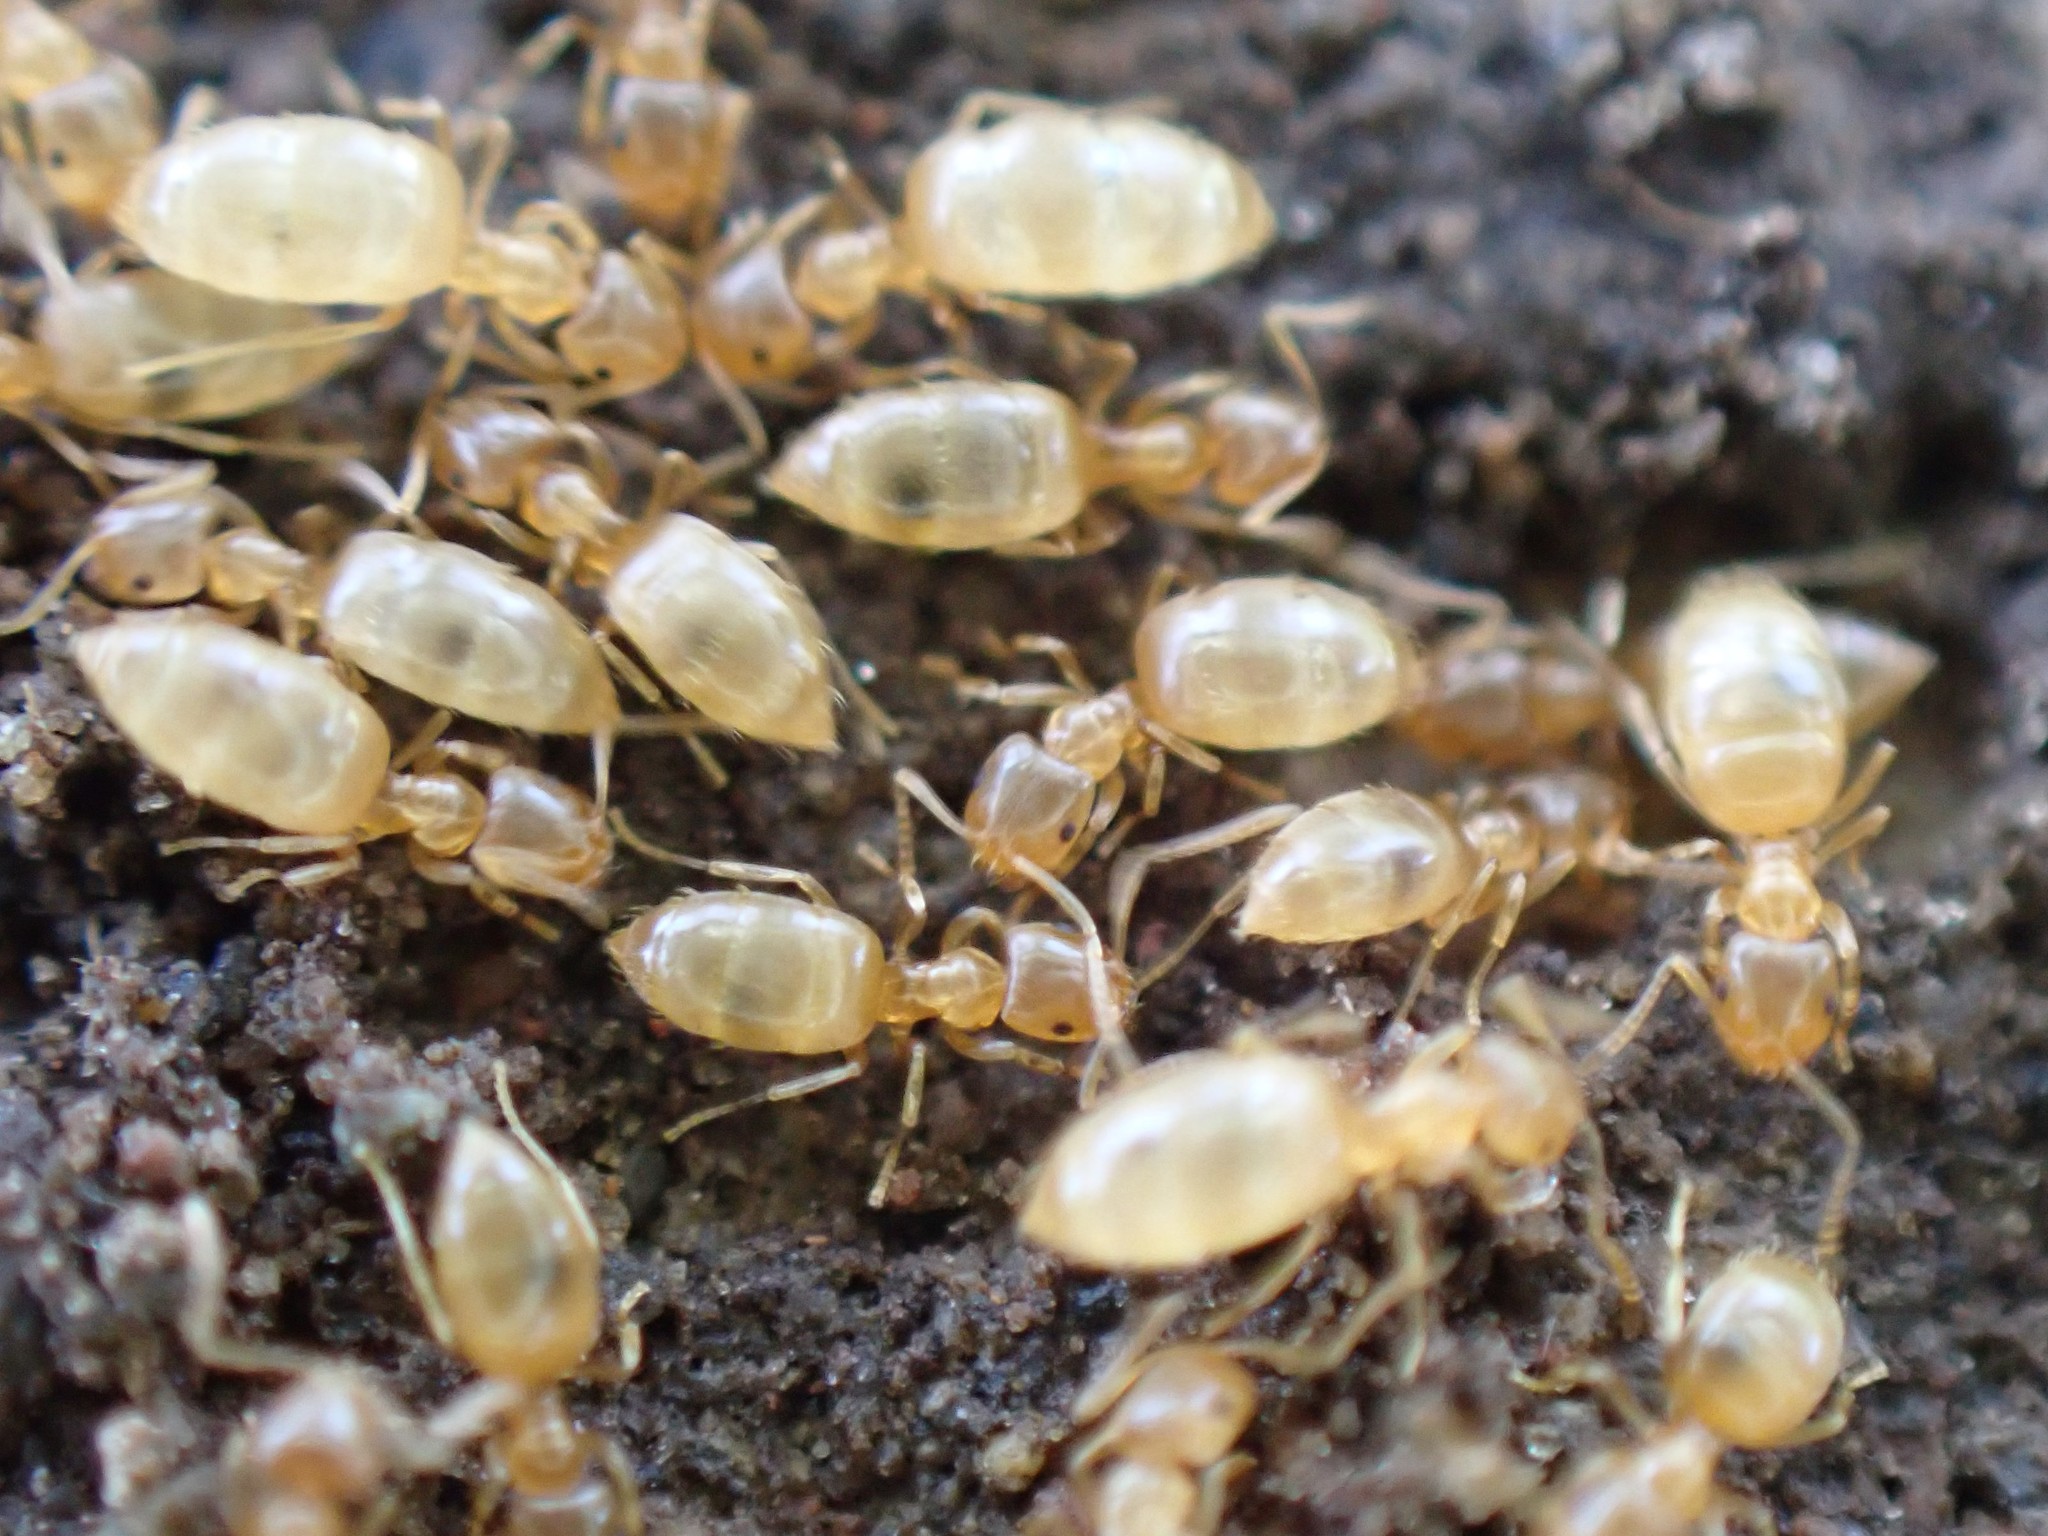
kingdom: Animalia
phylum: Arthropoda
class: Insecta
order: Hymenoptera
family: Formicidae
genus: Brachymyrmex
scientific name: Brachymyrmex depilis
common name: Hairless rover ant
